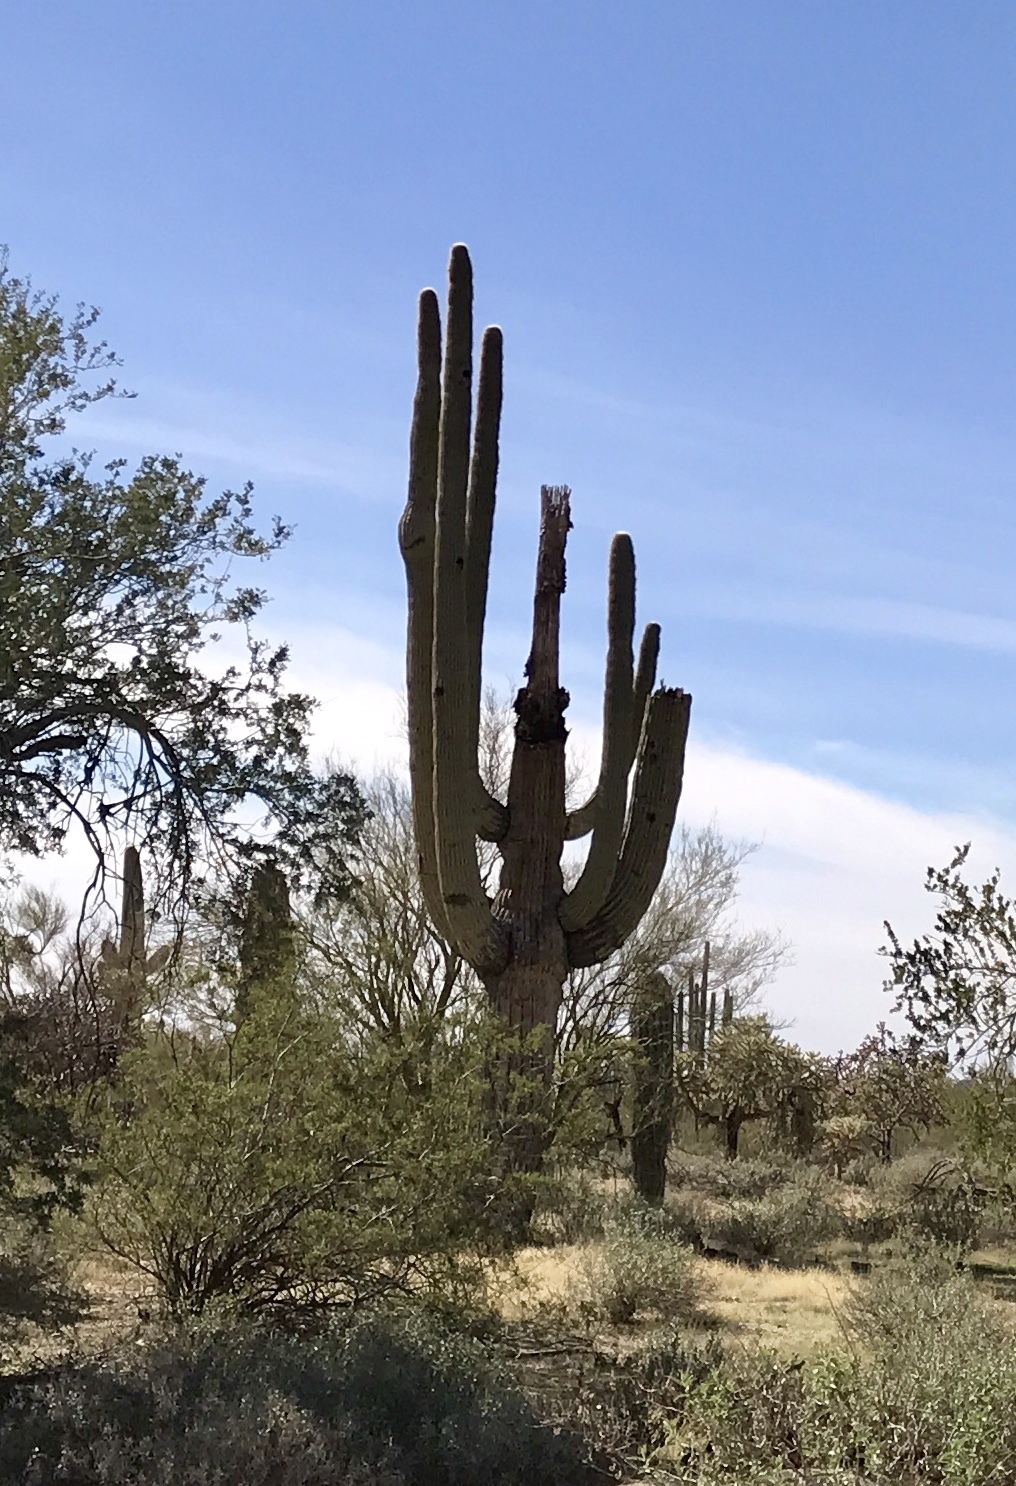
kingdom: Plantae
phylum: Tracheophyta
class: Magnoliopsida
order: Caryophyllales
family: Cactaceae
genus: Carnegiea
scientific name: Carnegiea gigantea
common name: Saguaro
